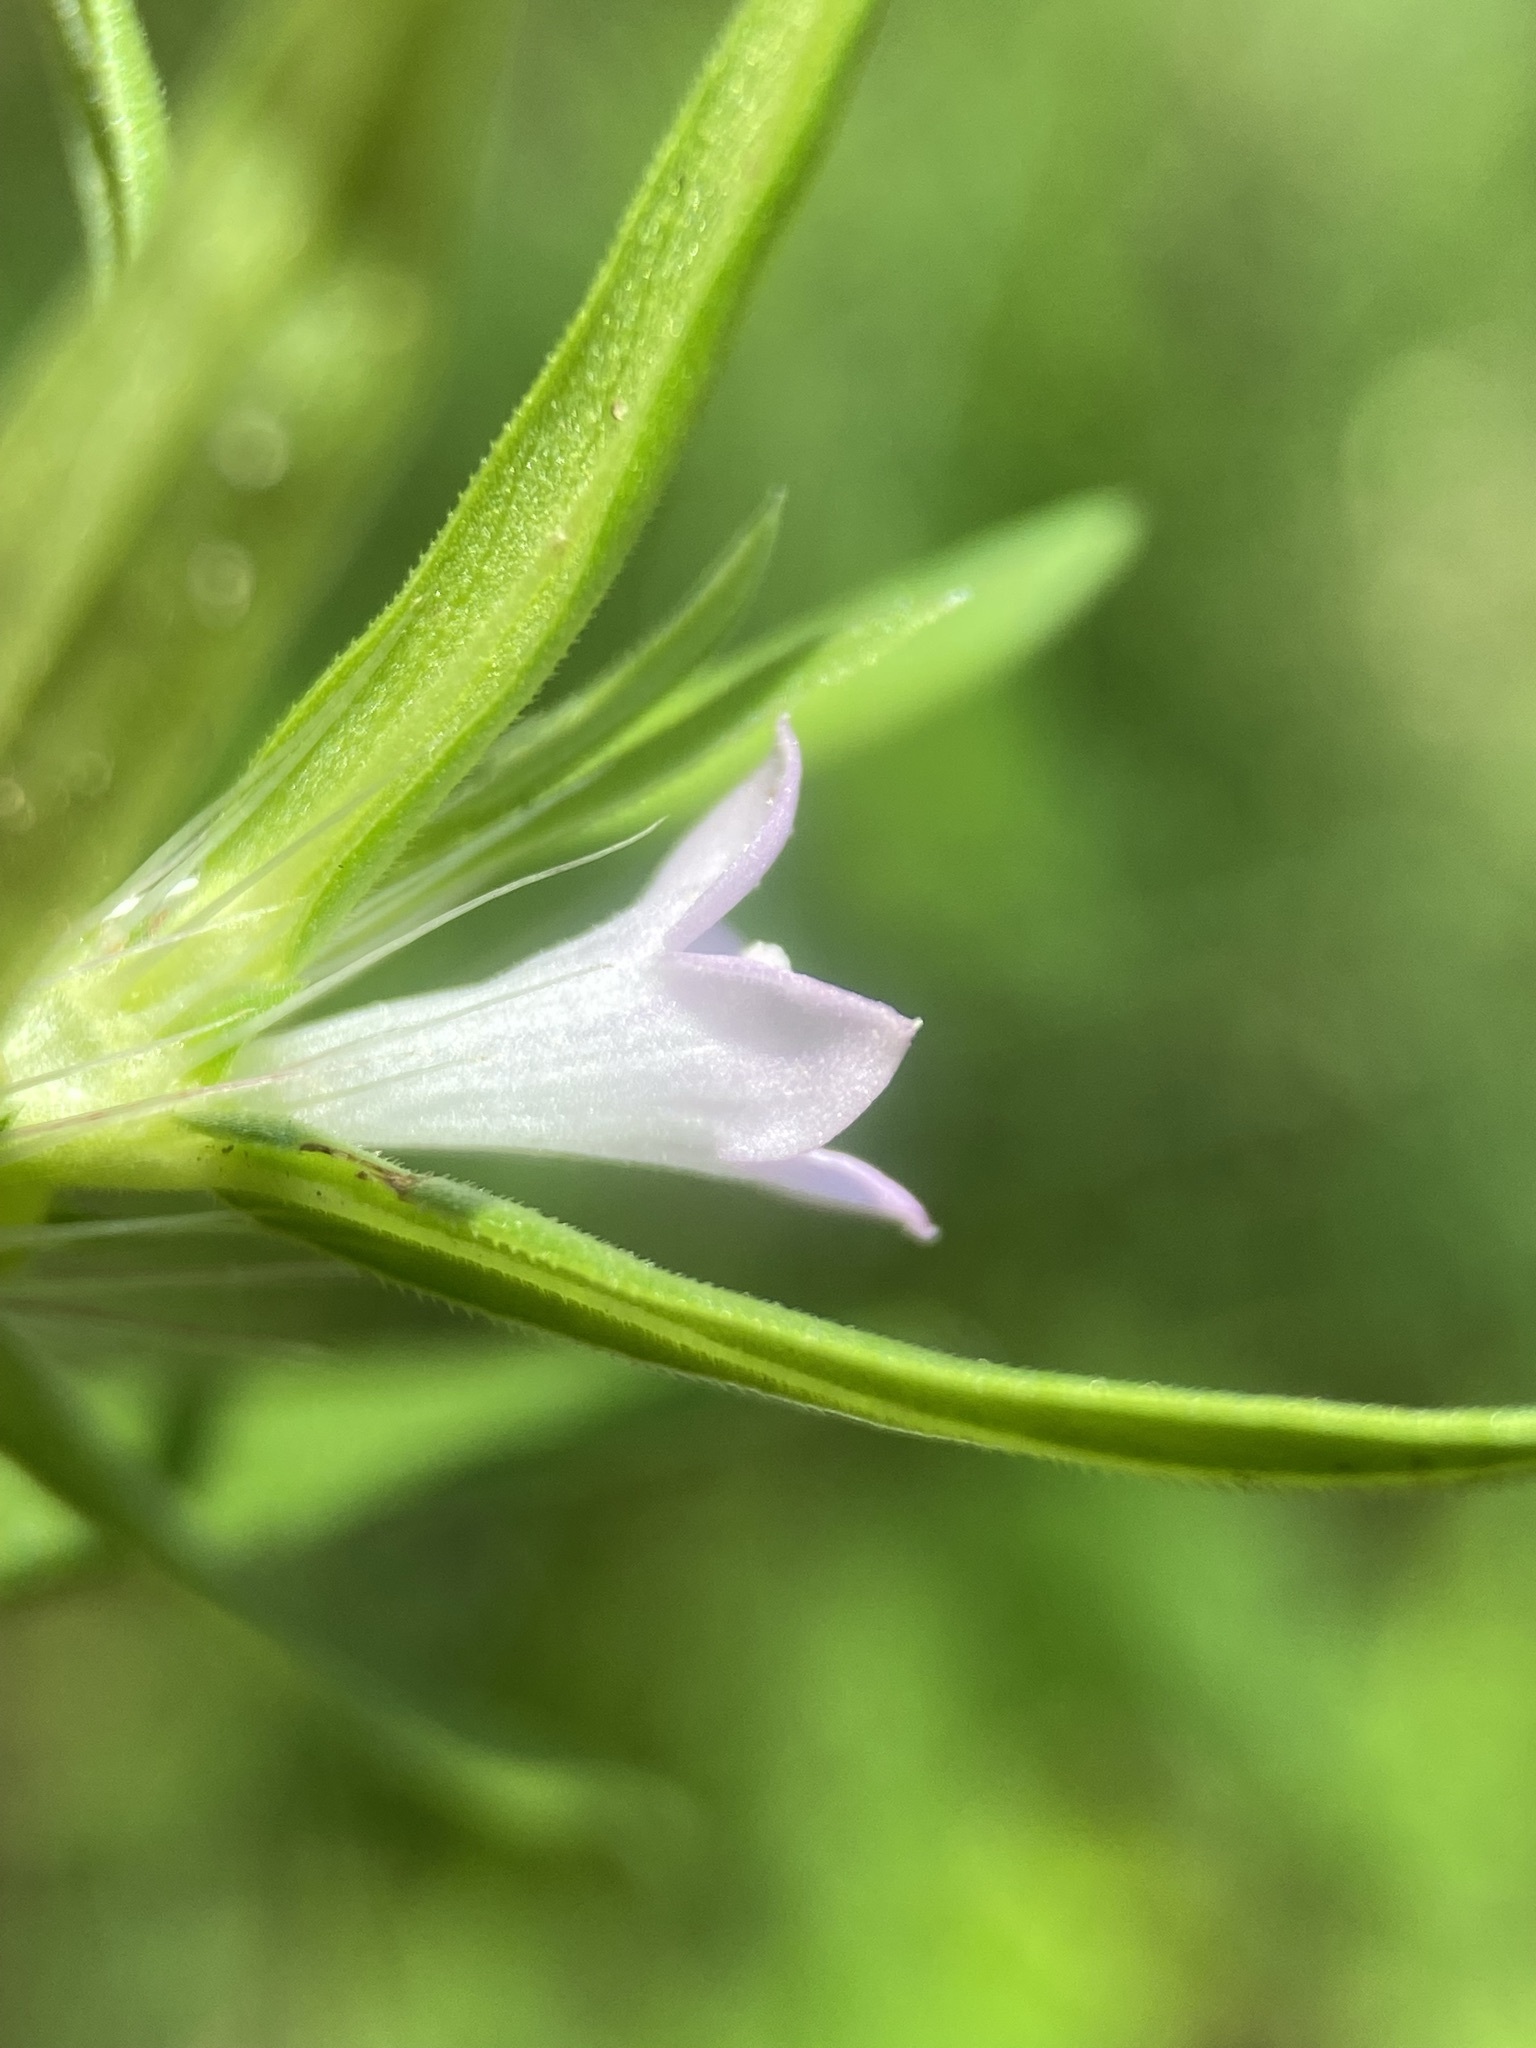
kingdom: Plantae
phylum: Tracheophyta
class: Magnoliopsida
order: Gentianales
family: Rubiaceae
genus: Hexasepalum
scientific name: Hexasepalum teres
